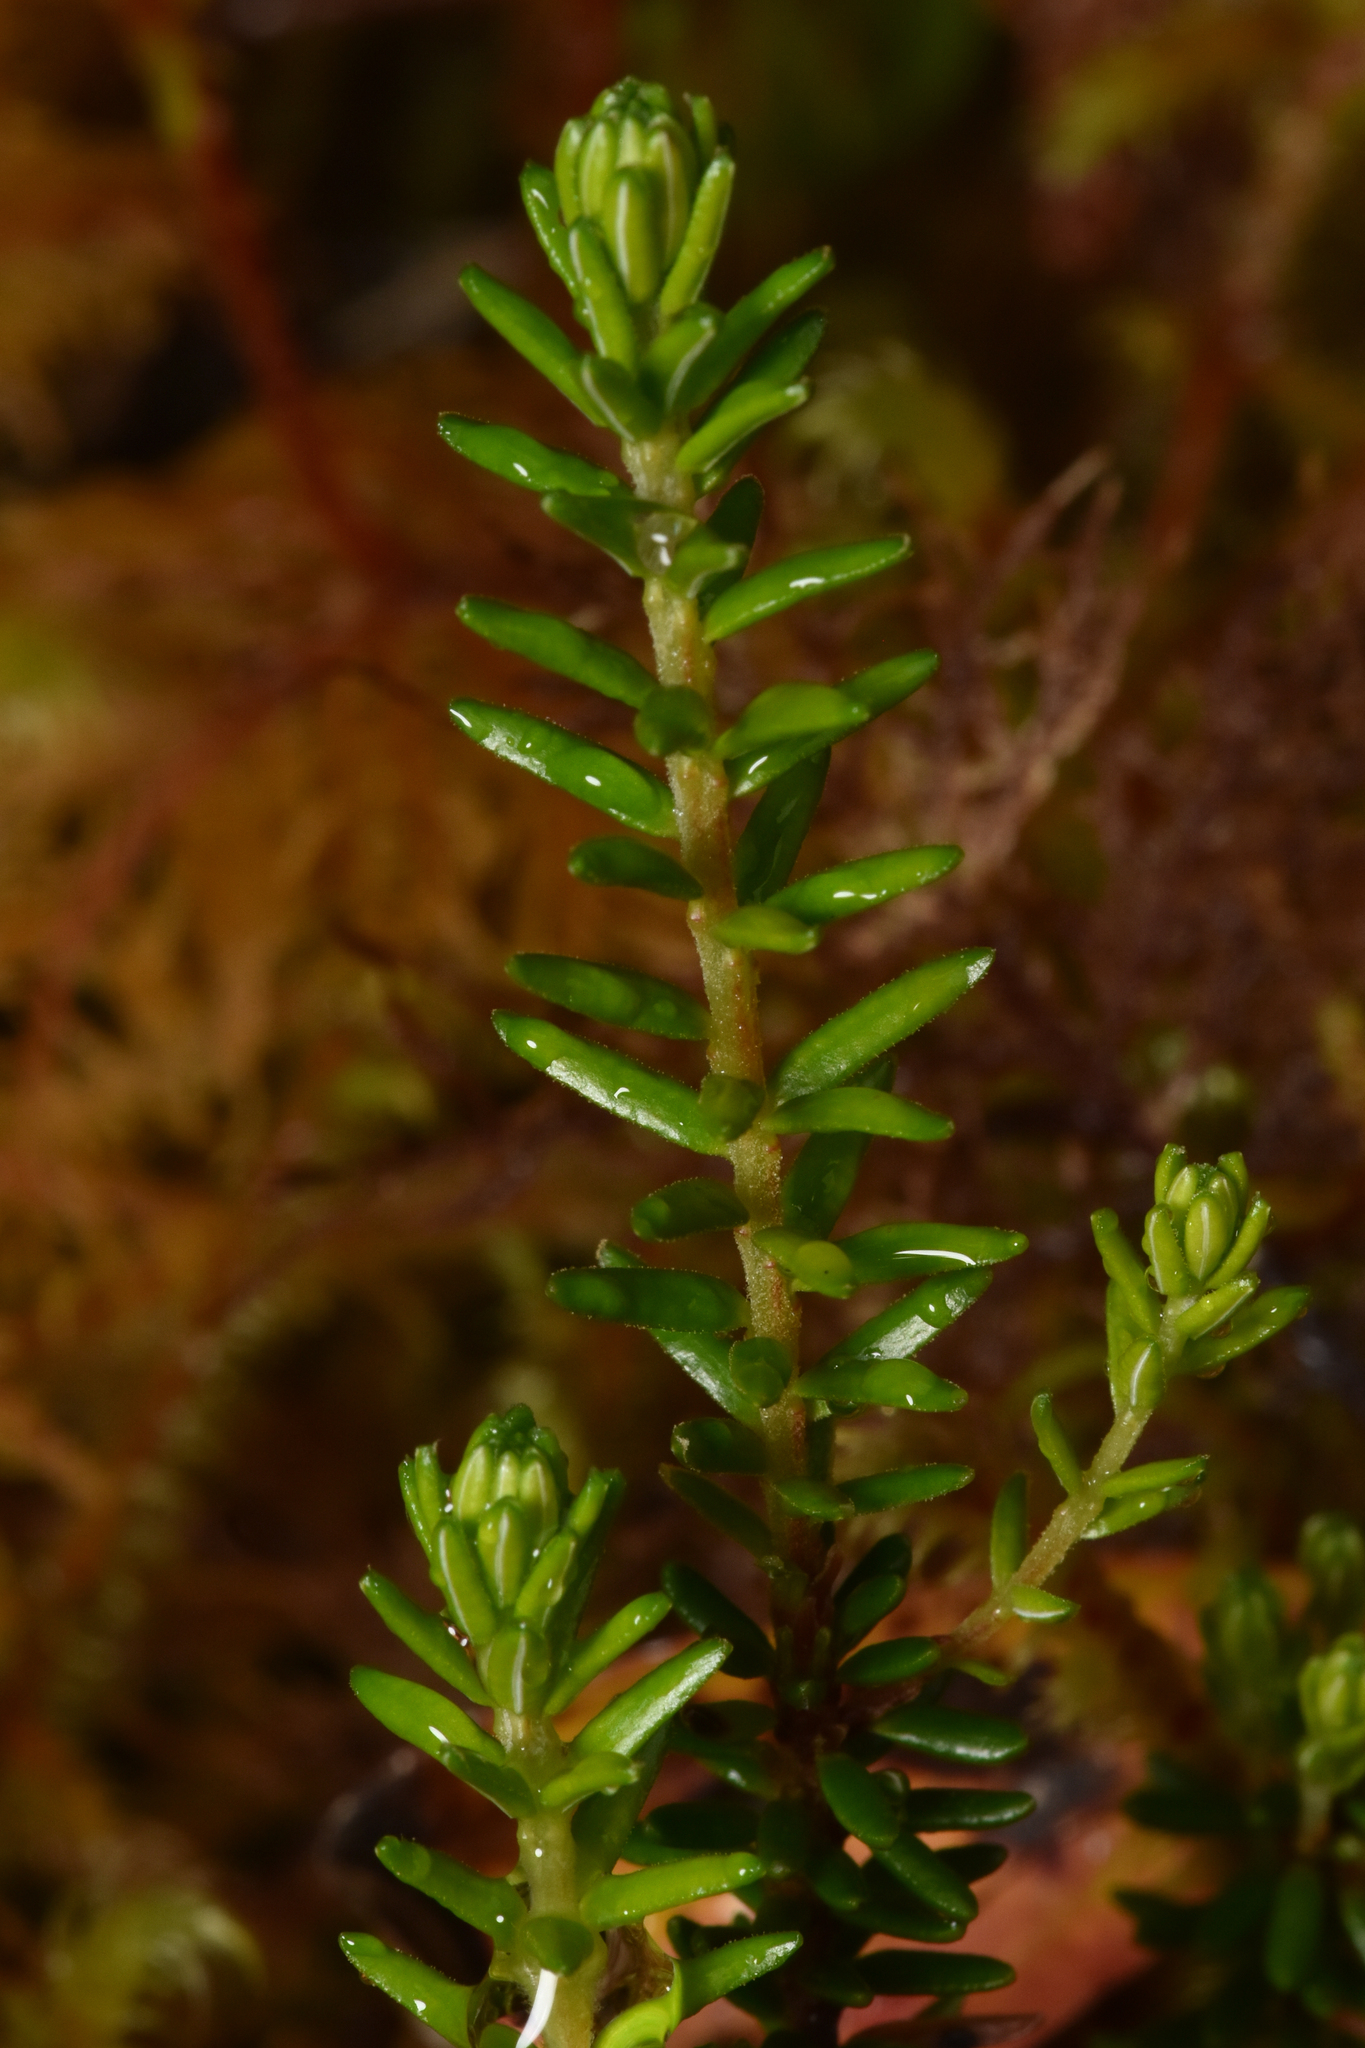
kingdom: Plantae
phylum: Tracheophyta
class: Magnoliopsida
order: Ericales
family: Ericaceae
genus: Empetrum
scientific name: Empetrum nigrum
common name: Black crowberry
